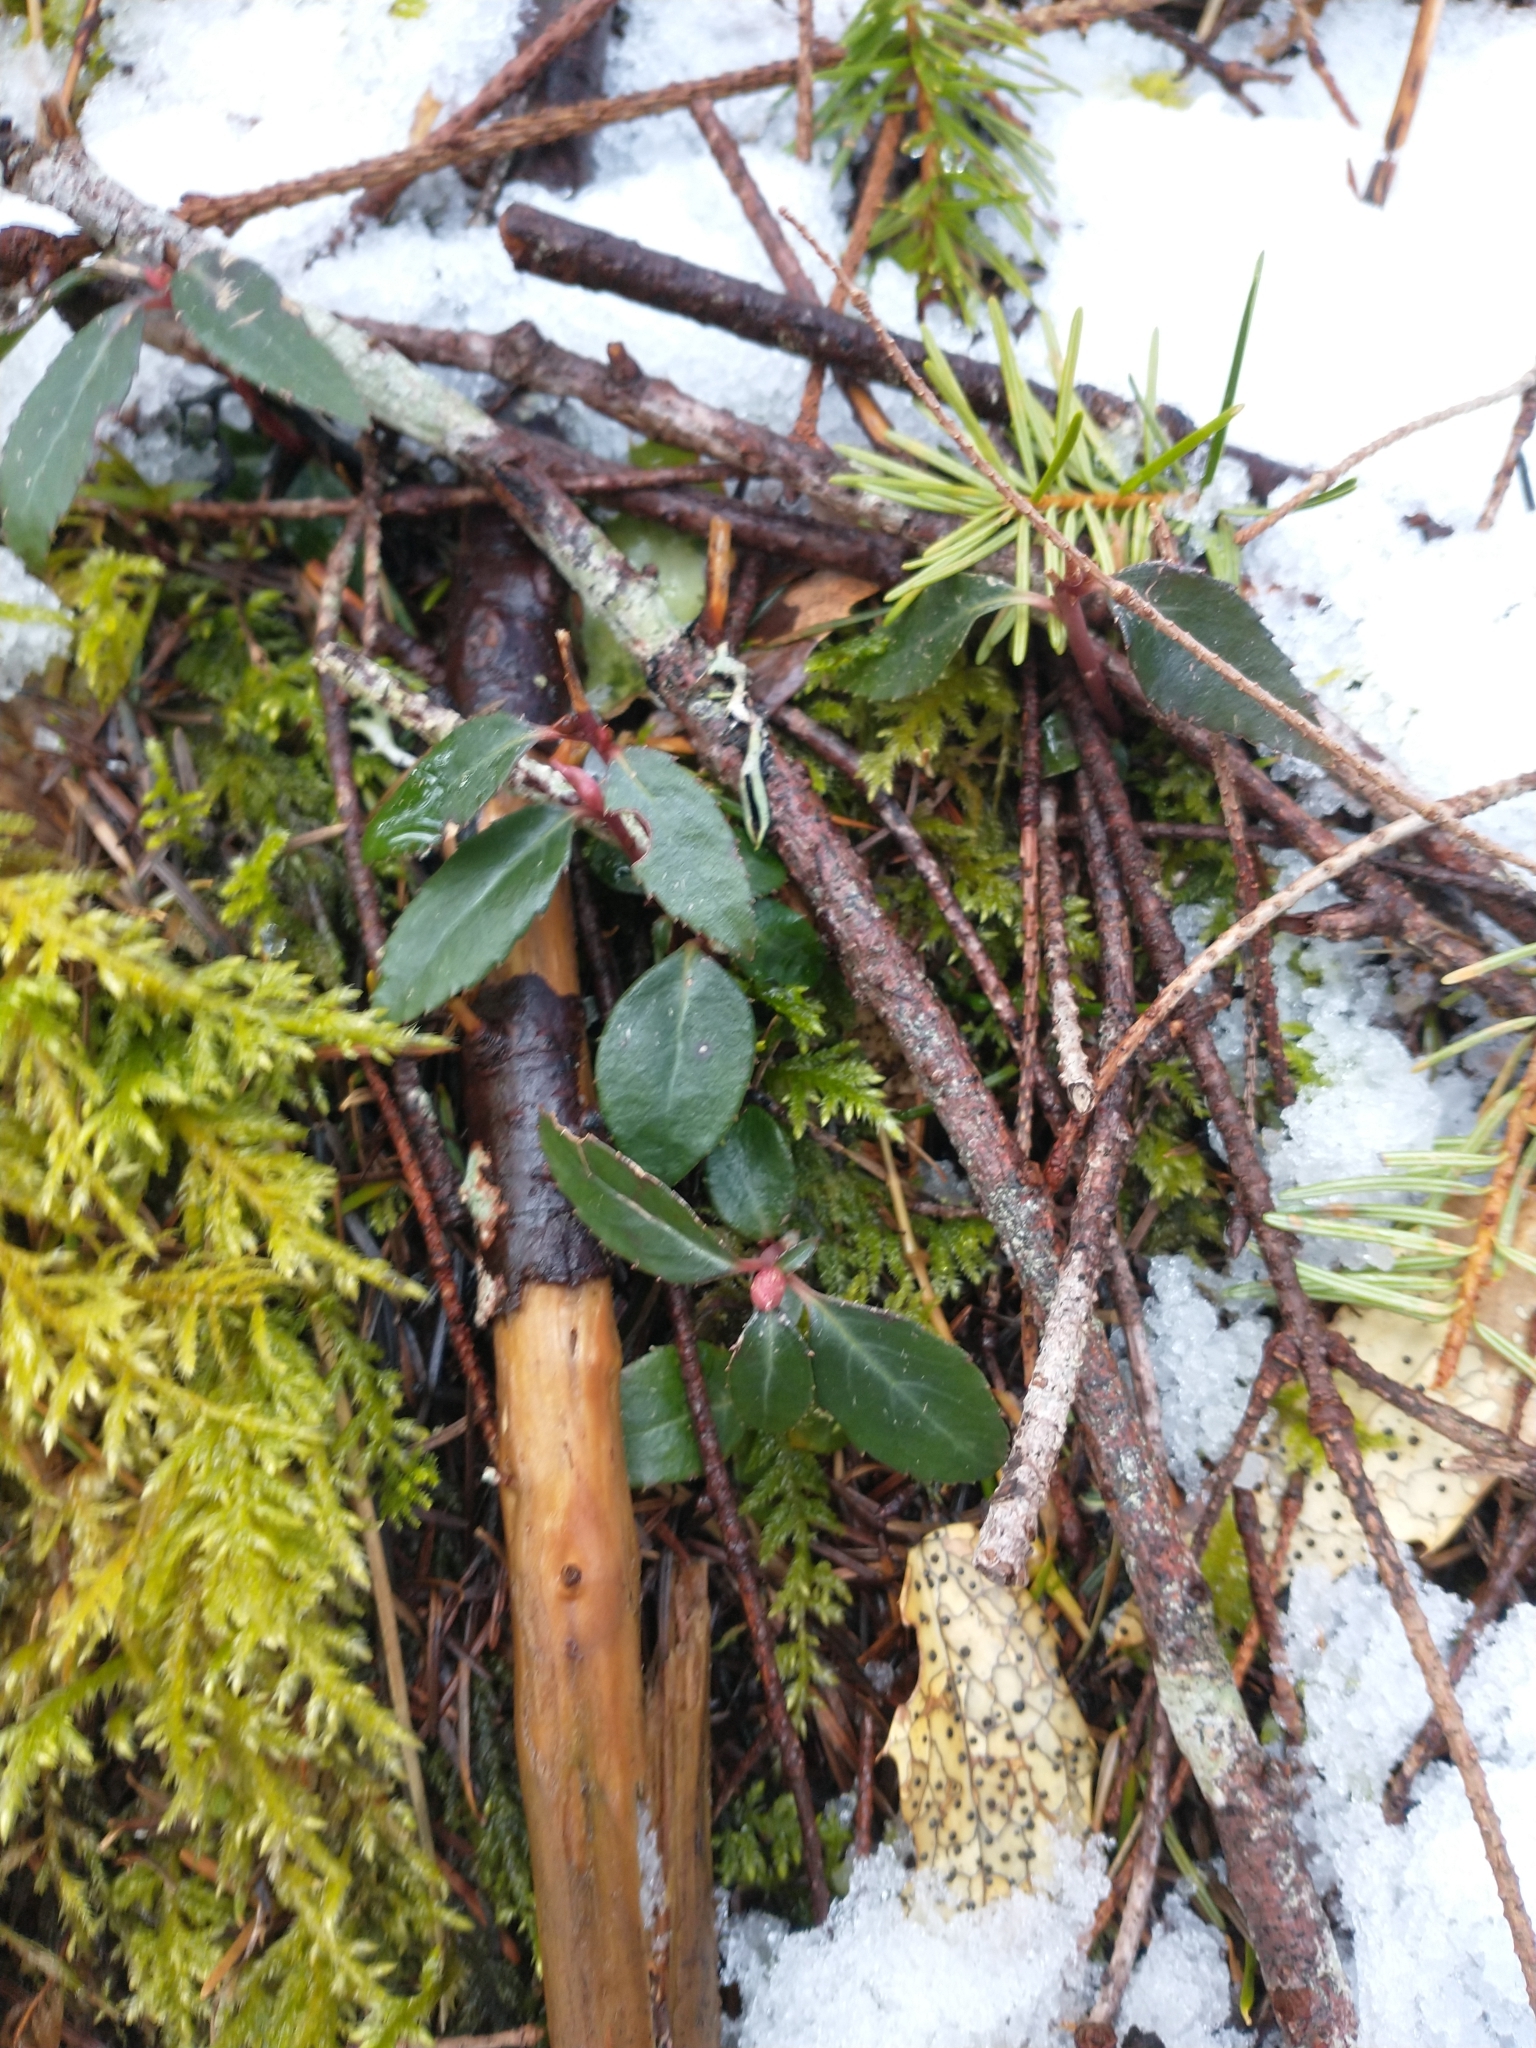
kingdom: Plantae
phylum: Tracheophyta
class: Magnoliopsida
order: Ericales
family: Ericaceae
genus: Chimaphila
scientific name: Chimaphila menziesii
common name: Menzies' pipsissewa
